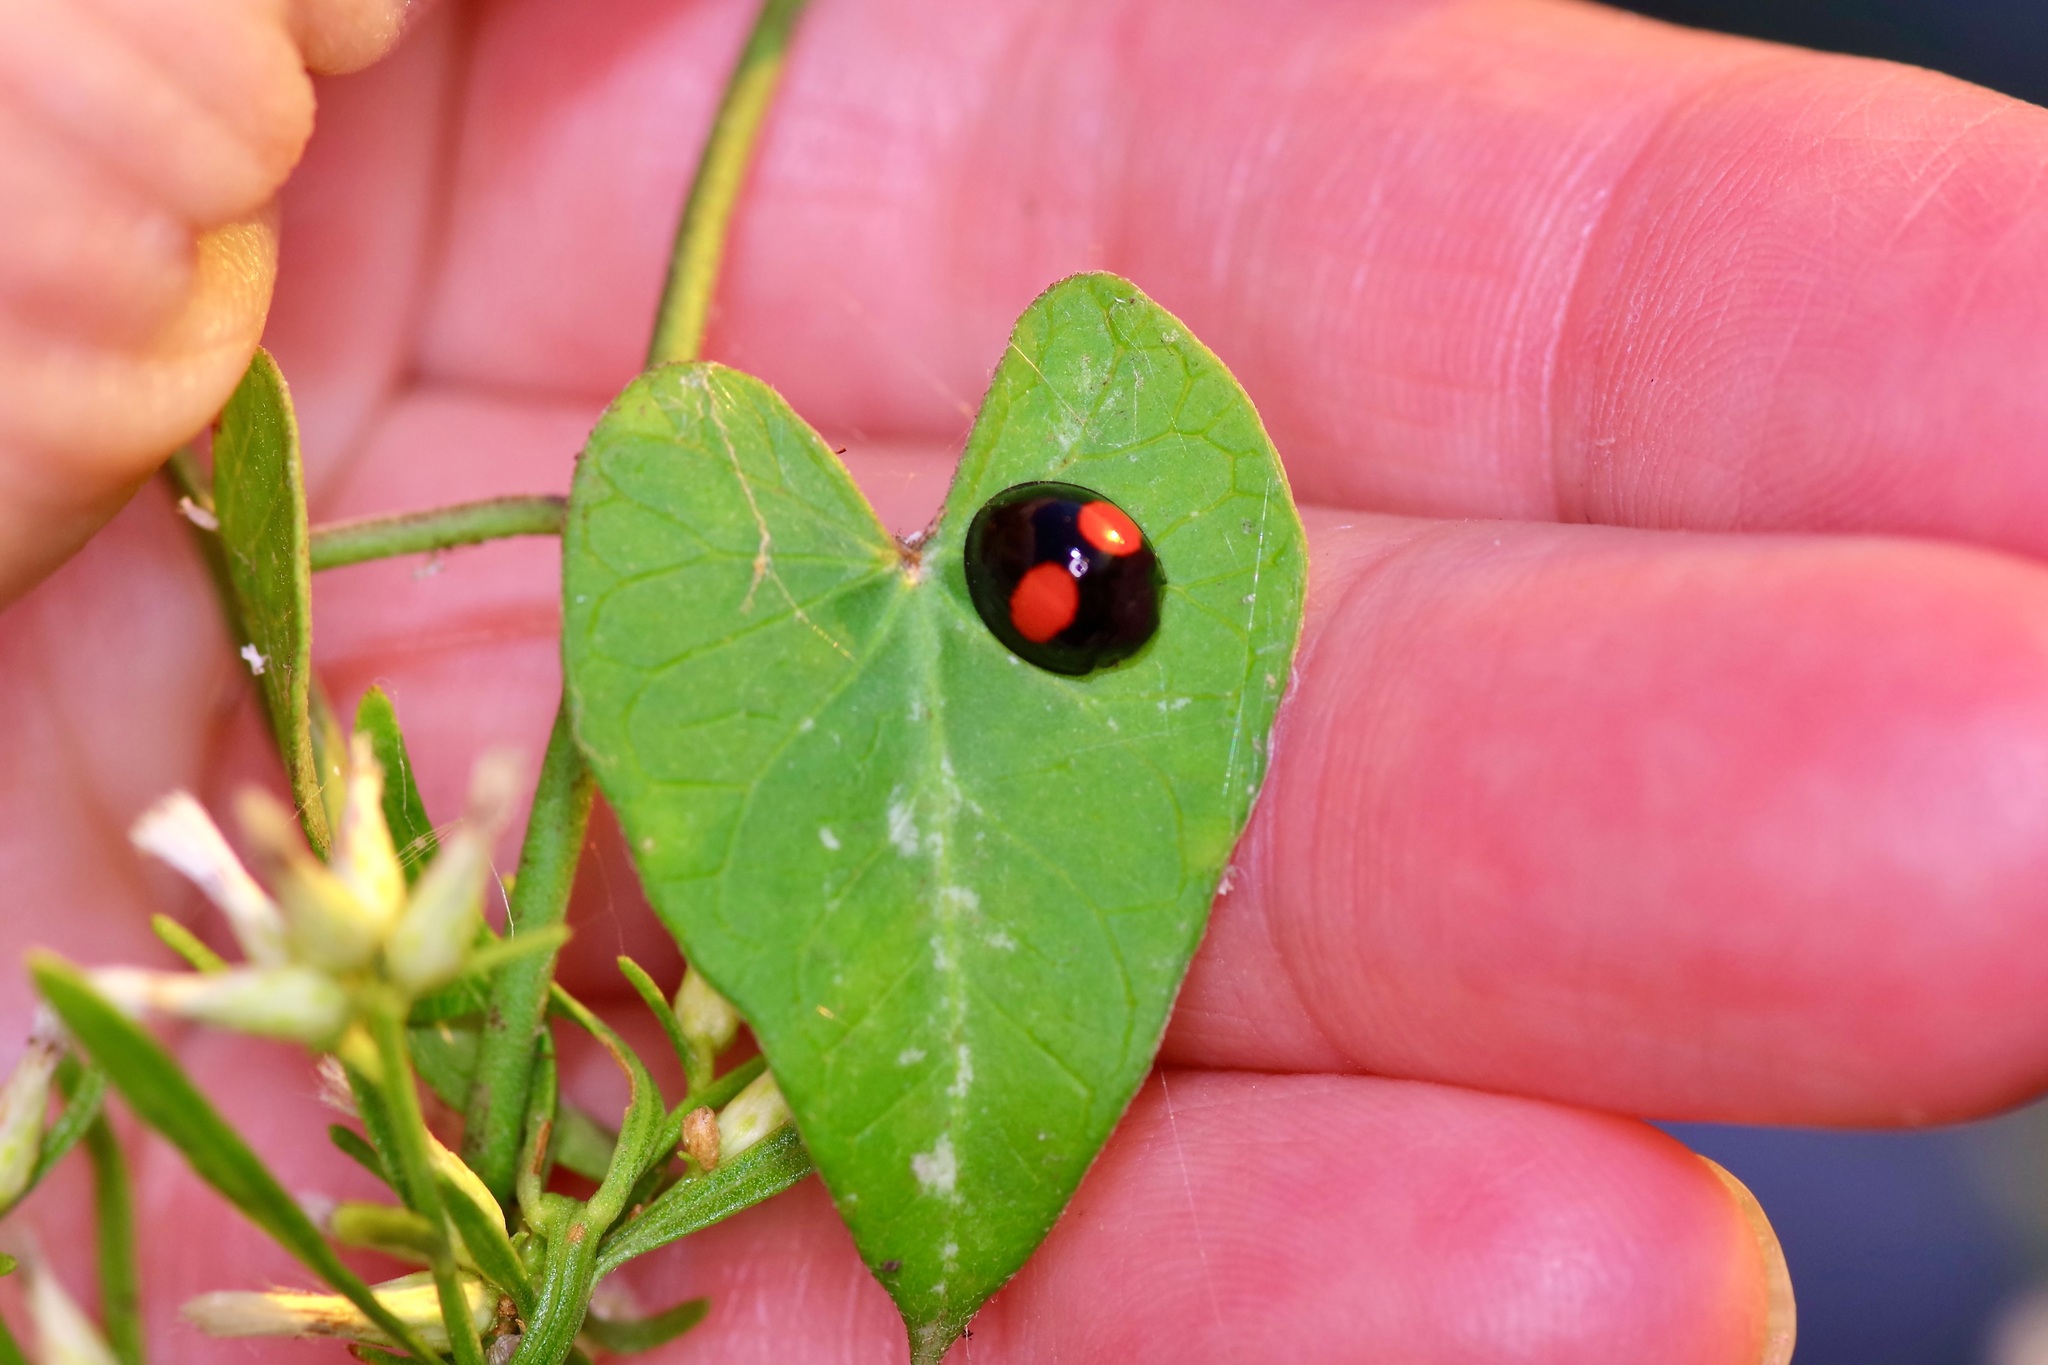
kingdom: Animalia
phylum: Arthropoda
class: Insecta
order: Coleoptera
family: Coccinellidae
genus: Chilocorus
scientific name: Chilocorus cacti
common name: Cactus lady beetle
